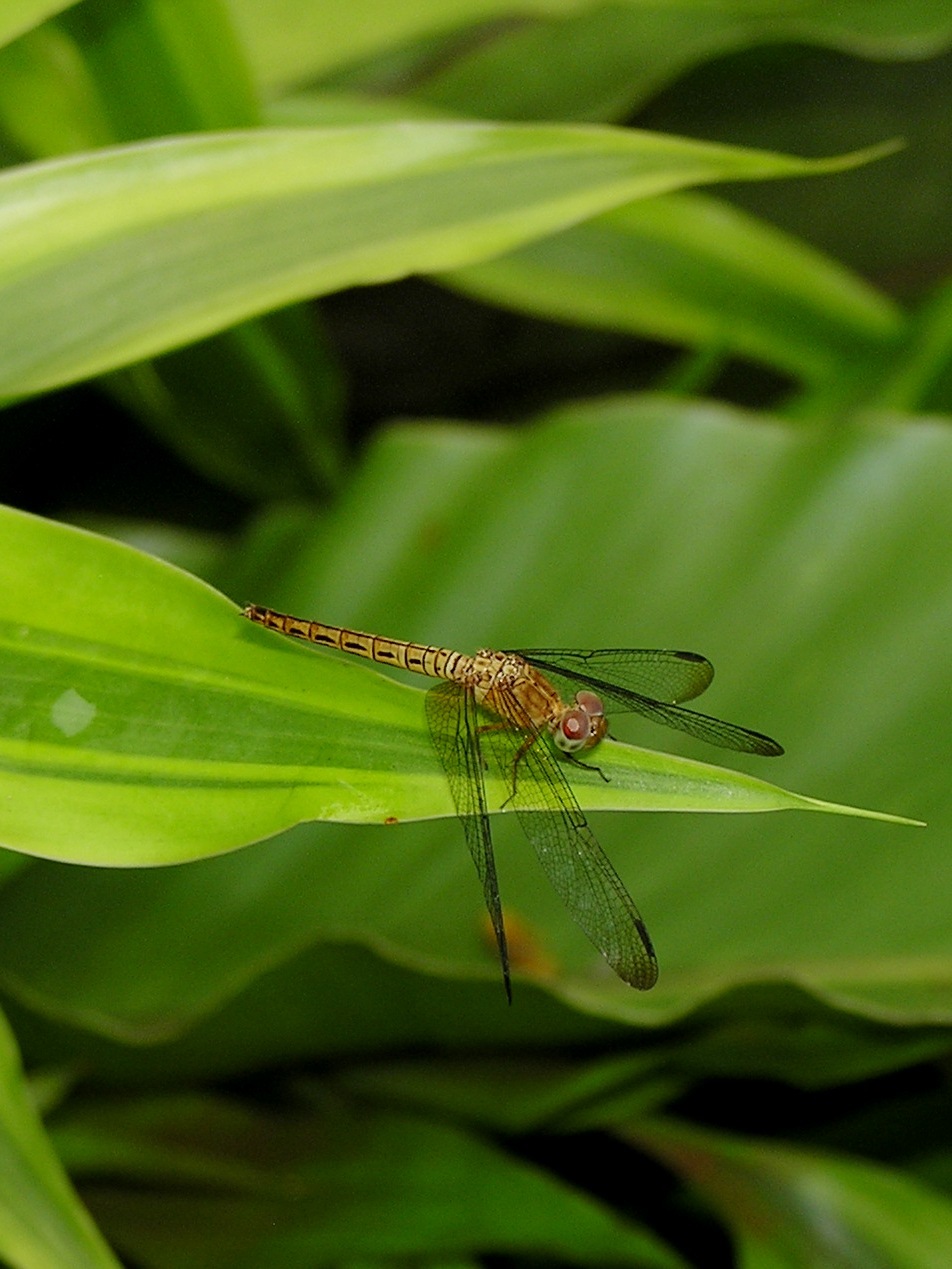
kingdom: Animalia
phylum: Arthropoda
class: Insecta
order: Odonata
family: Libellulidae
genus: Neurothemis
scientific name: Neurothemis fluctuans
